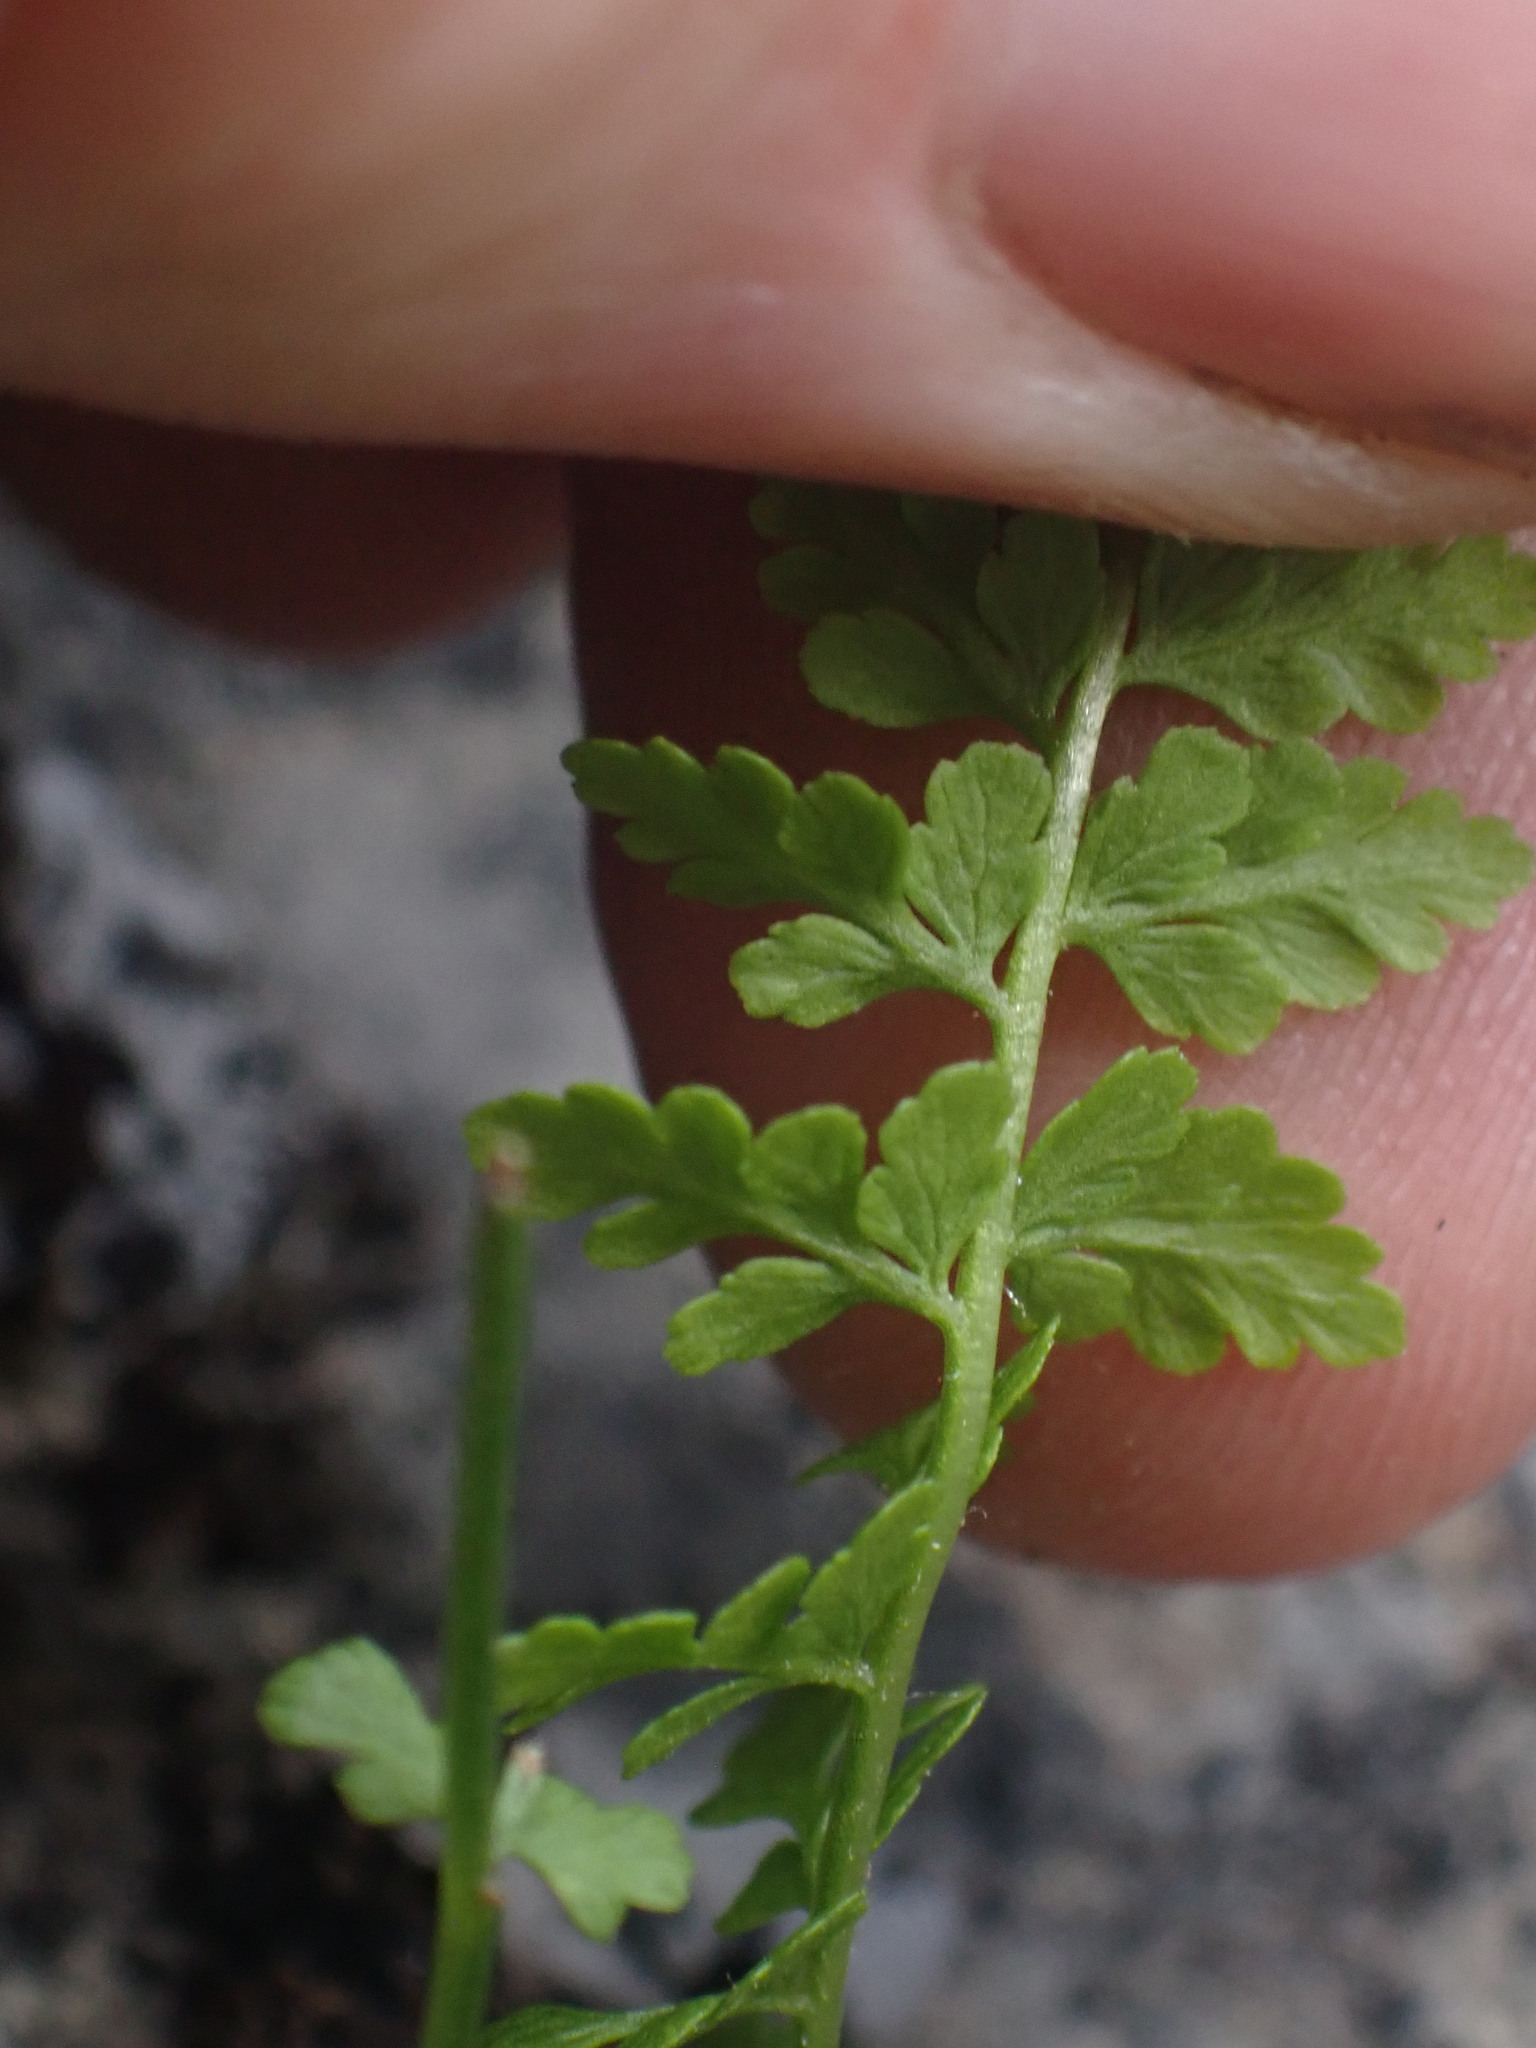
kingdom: Plantae
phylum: Tracheophyta
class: Polypodiopsida
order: Polypodiales
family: Cystopteridaceae
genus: Cystopteris
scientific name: Cystopteris fragilis
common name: Brittle bladder fern
